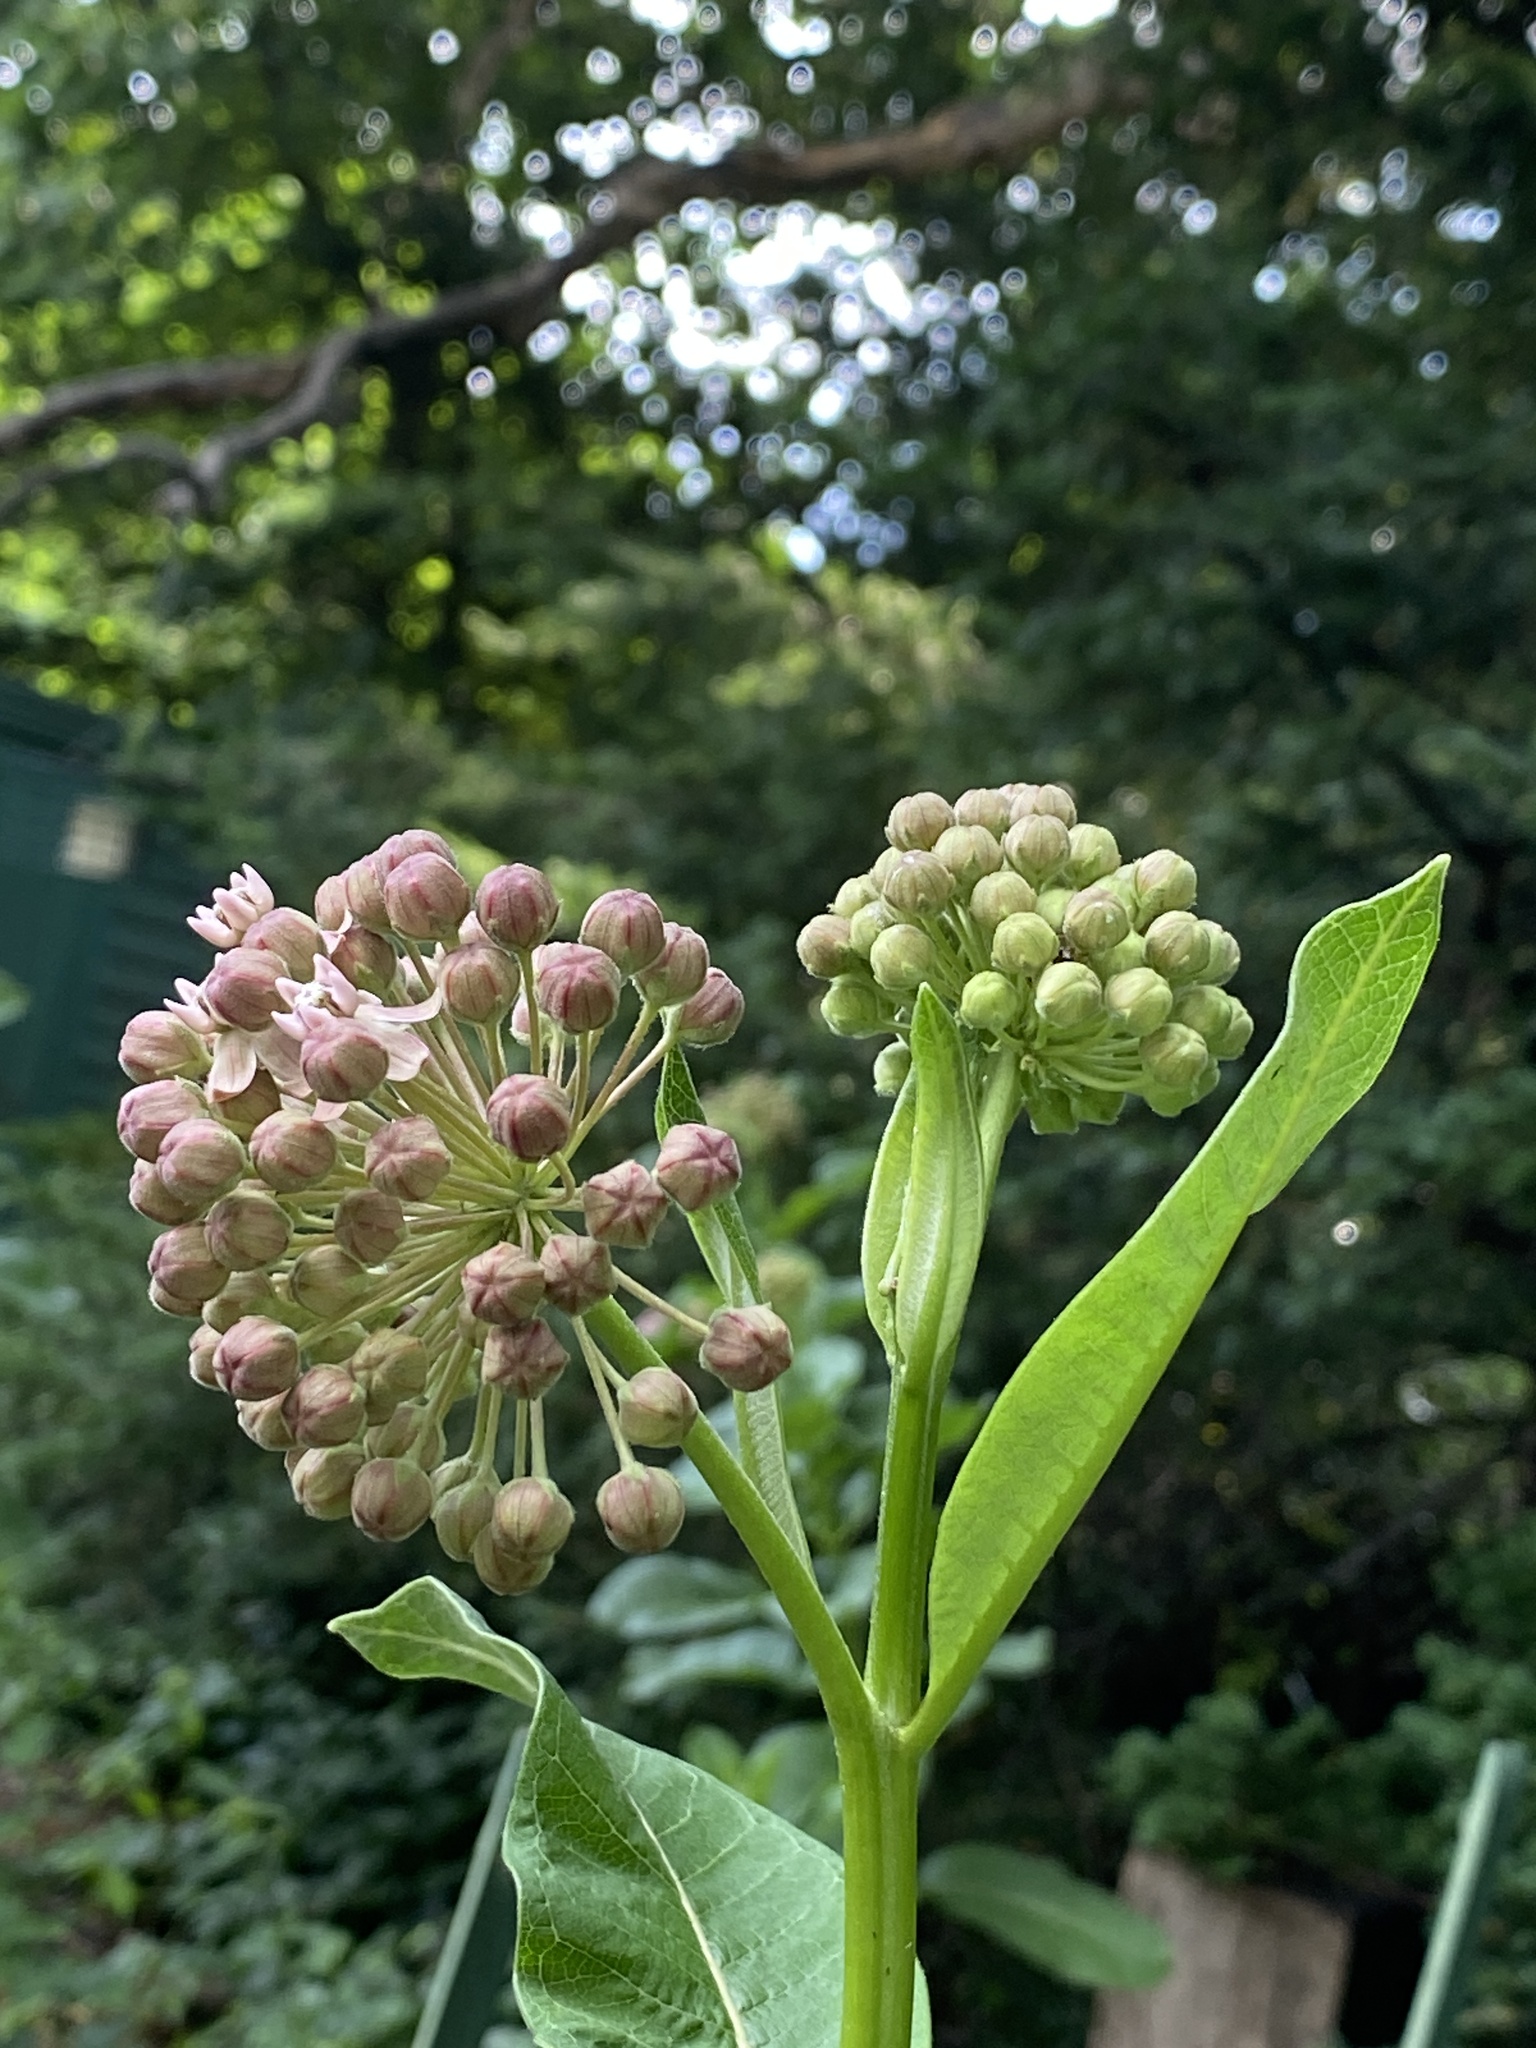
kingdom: Plantae
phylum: Tracheophyta
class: Magnoliopsida
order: Gentianales
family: Apocynaceae
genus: Asclepias
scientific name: Asclepias syriaca
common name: Common milkweed
